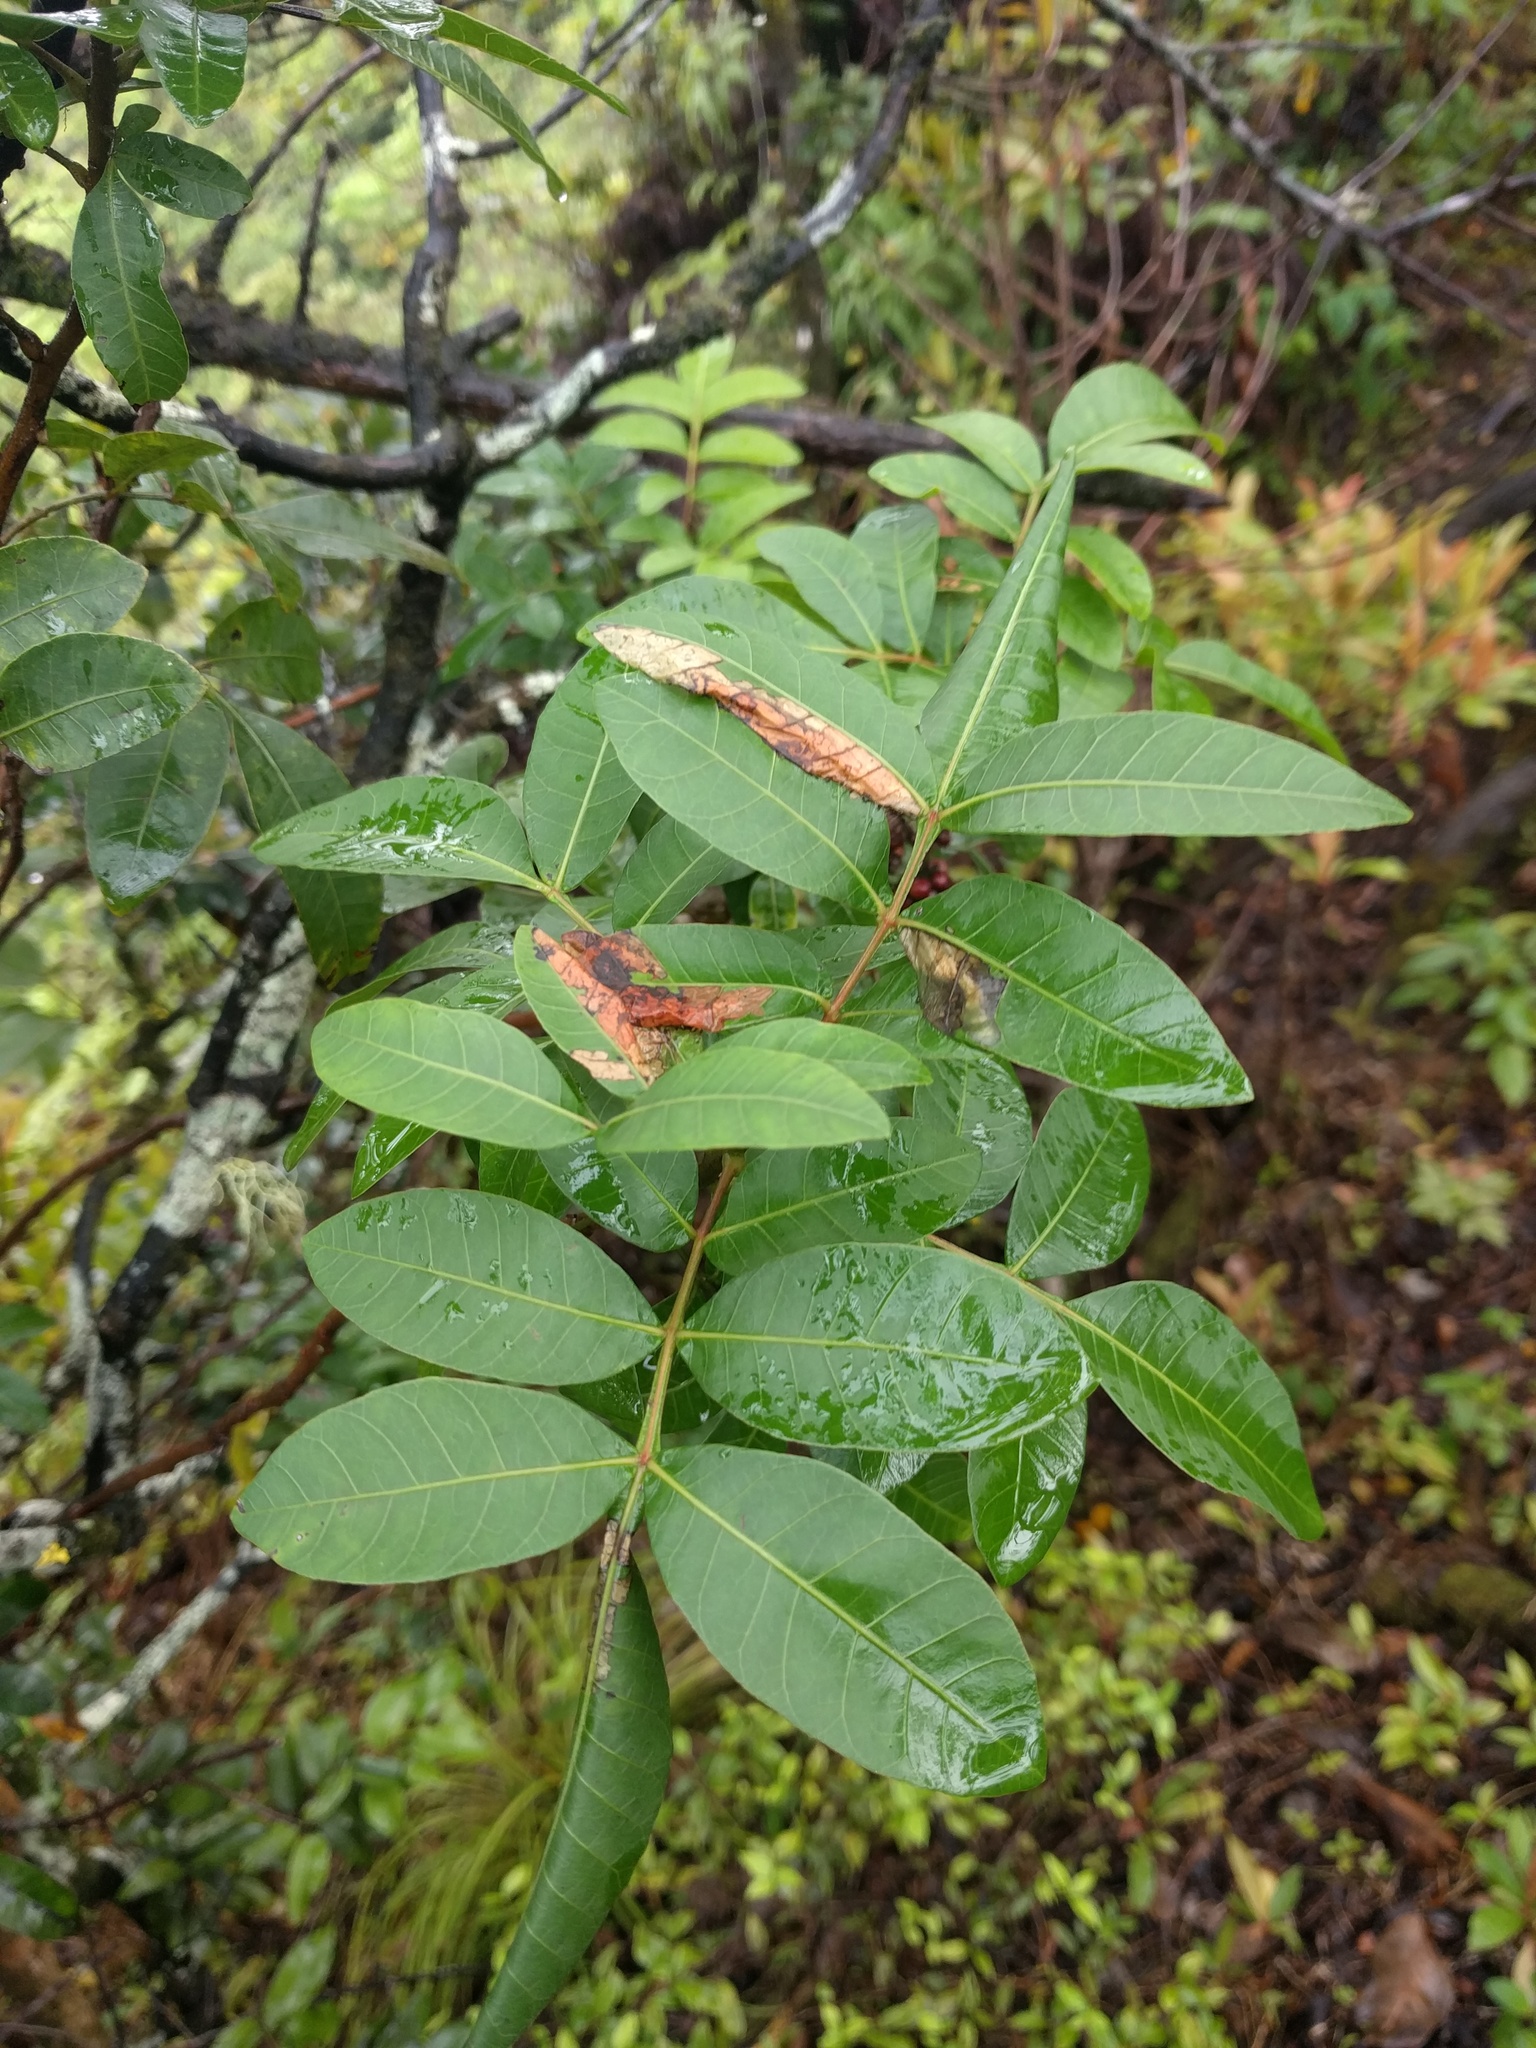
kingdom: Animalia
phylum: Arthropoda
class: Insecta
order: Lepidoptera
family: Tortricidae
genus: Episimus
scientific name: Episimus unguiculus
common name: Brazilian peppertree leaflet rolling moth
